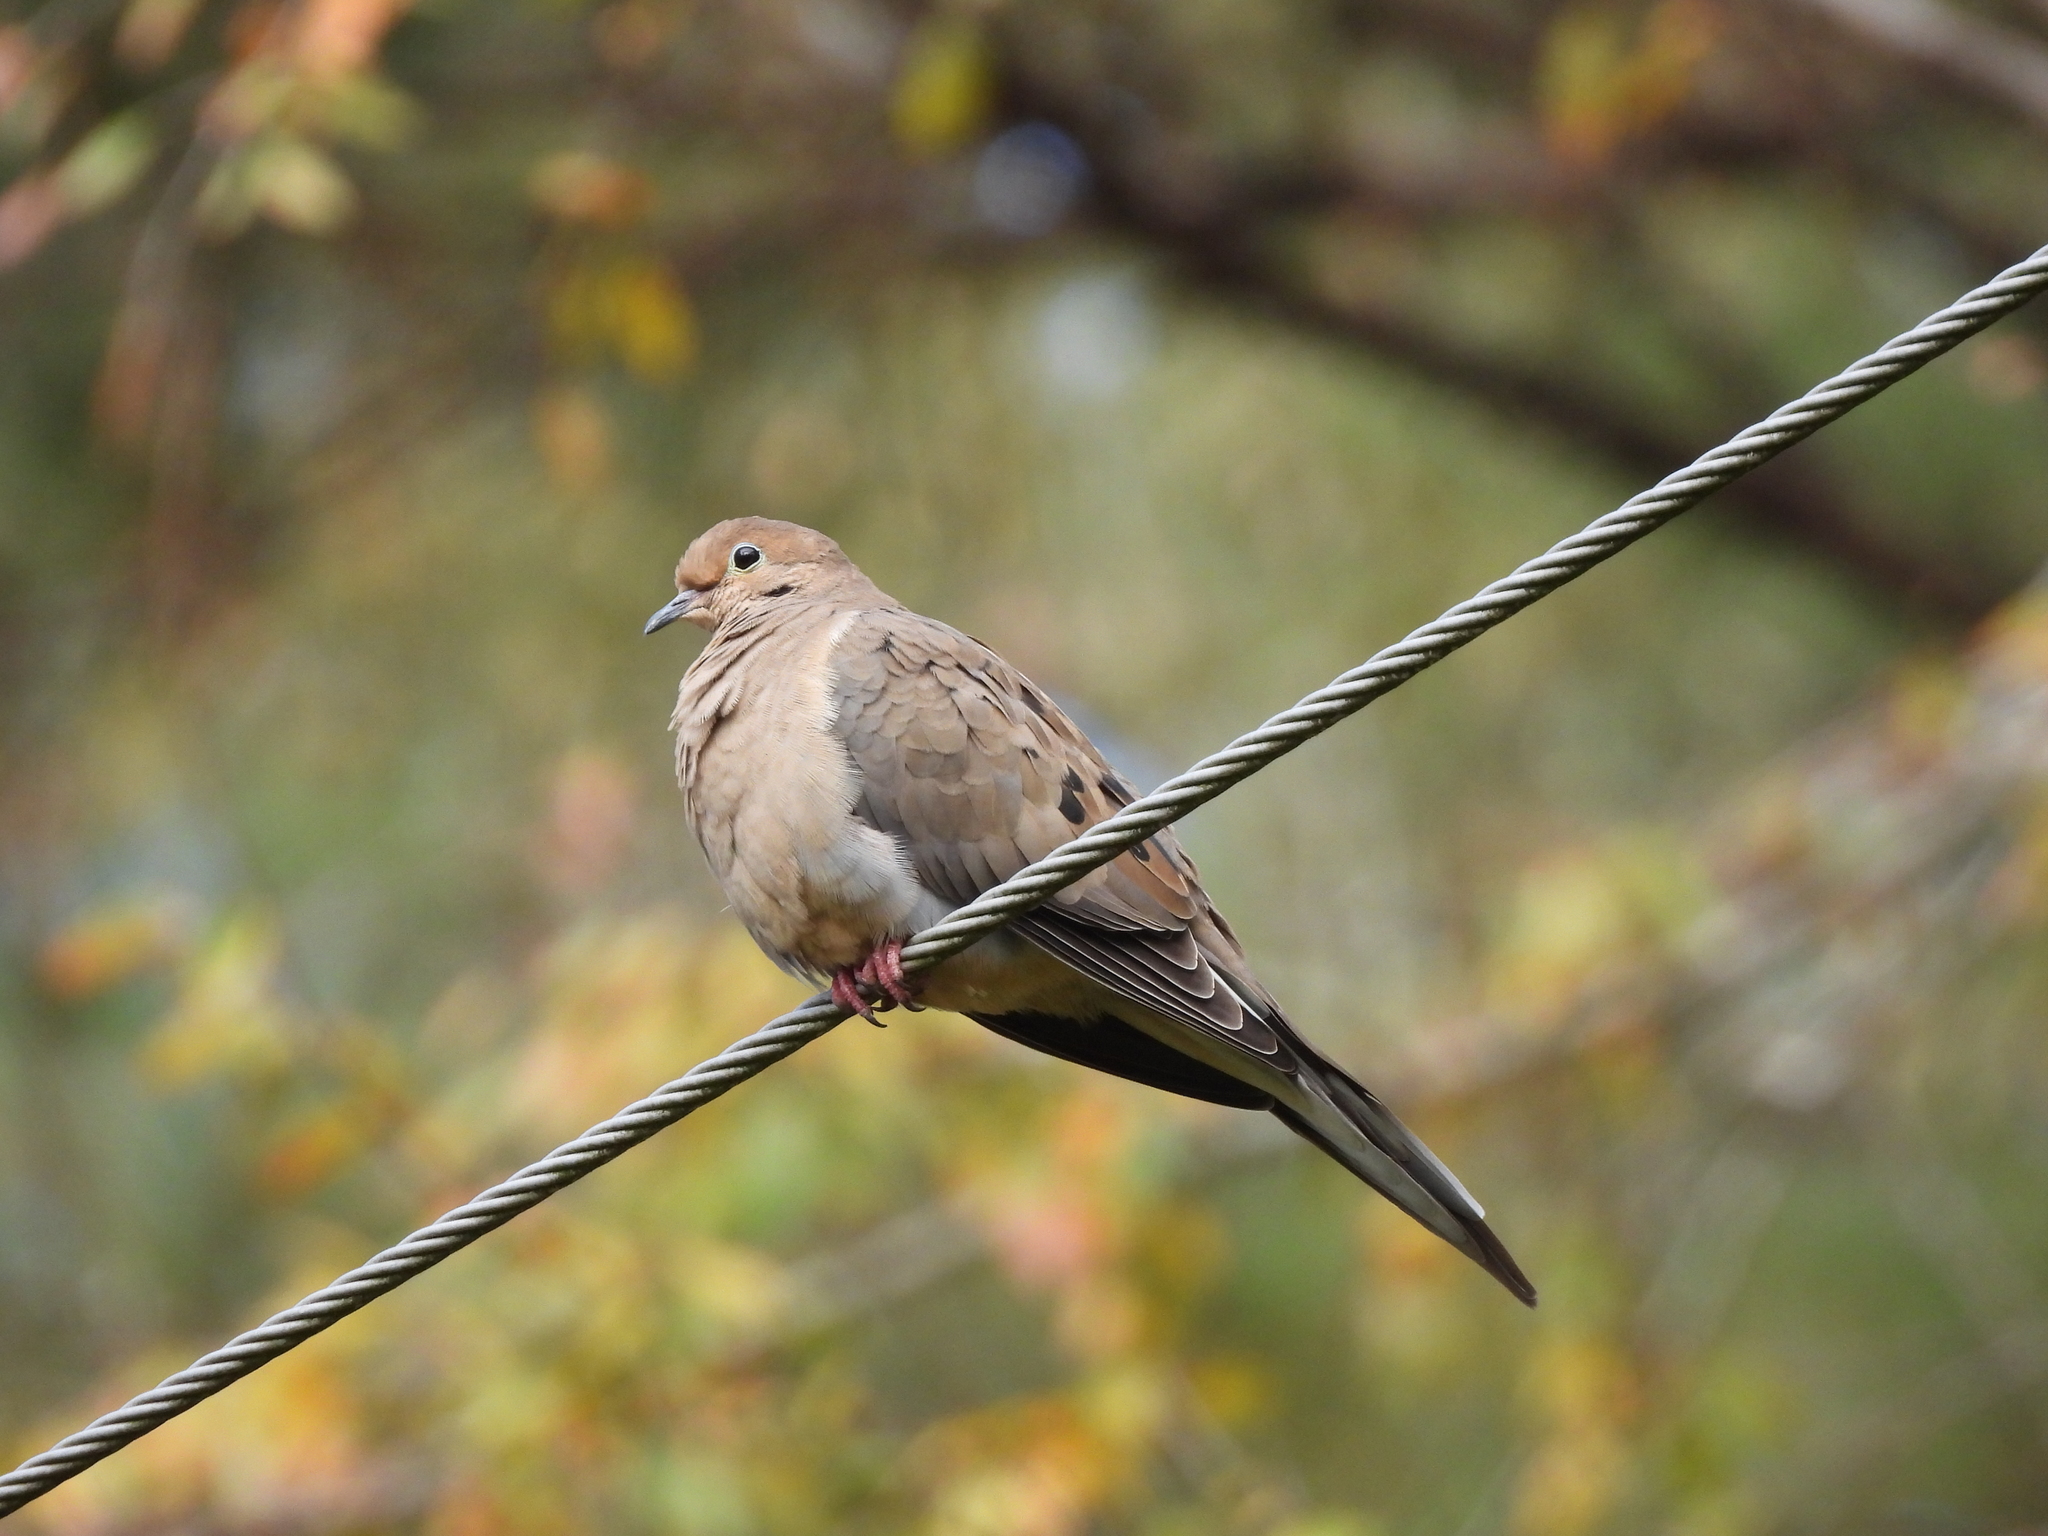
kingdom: Animalia
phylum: Chordata
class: Aves
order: Columbiformes
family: Columbidae
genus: Zenaida
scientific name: Zenaida macroura
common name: Mourning dove
